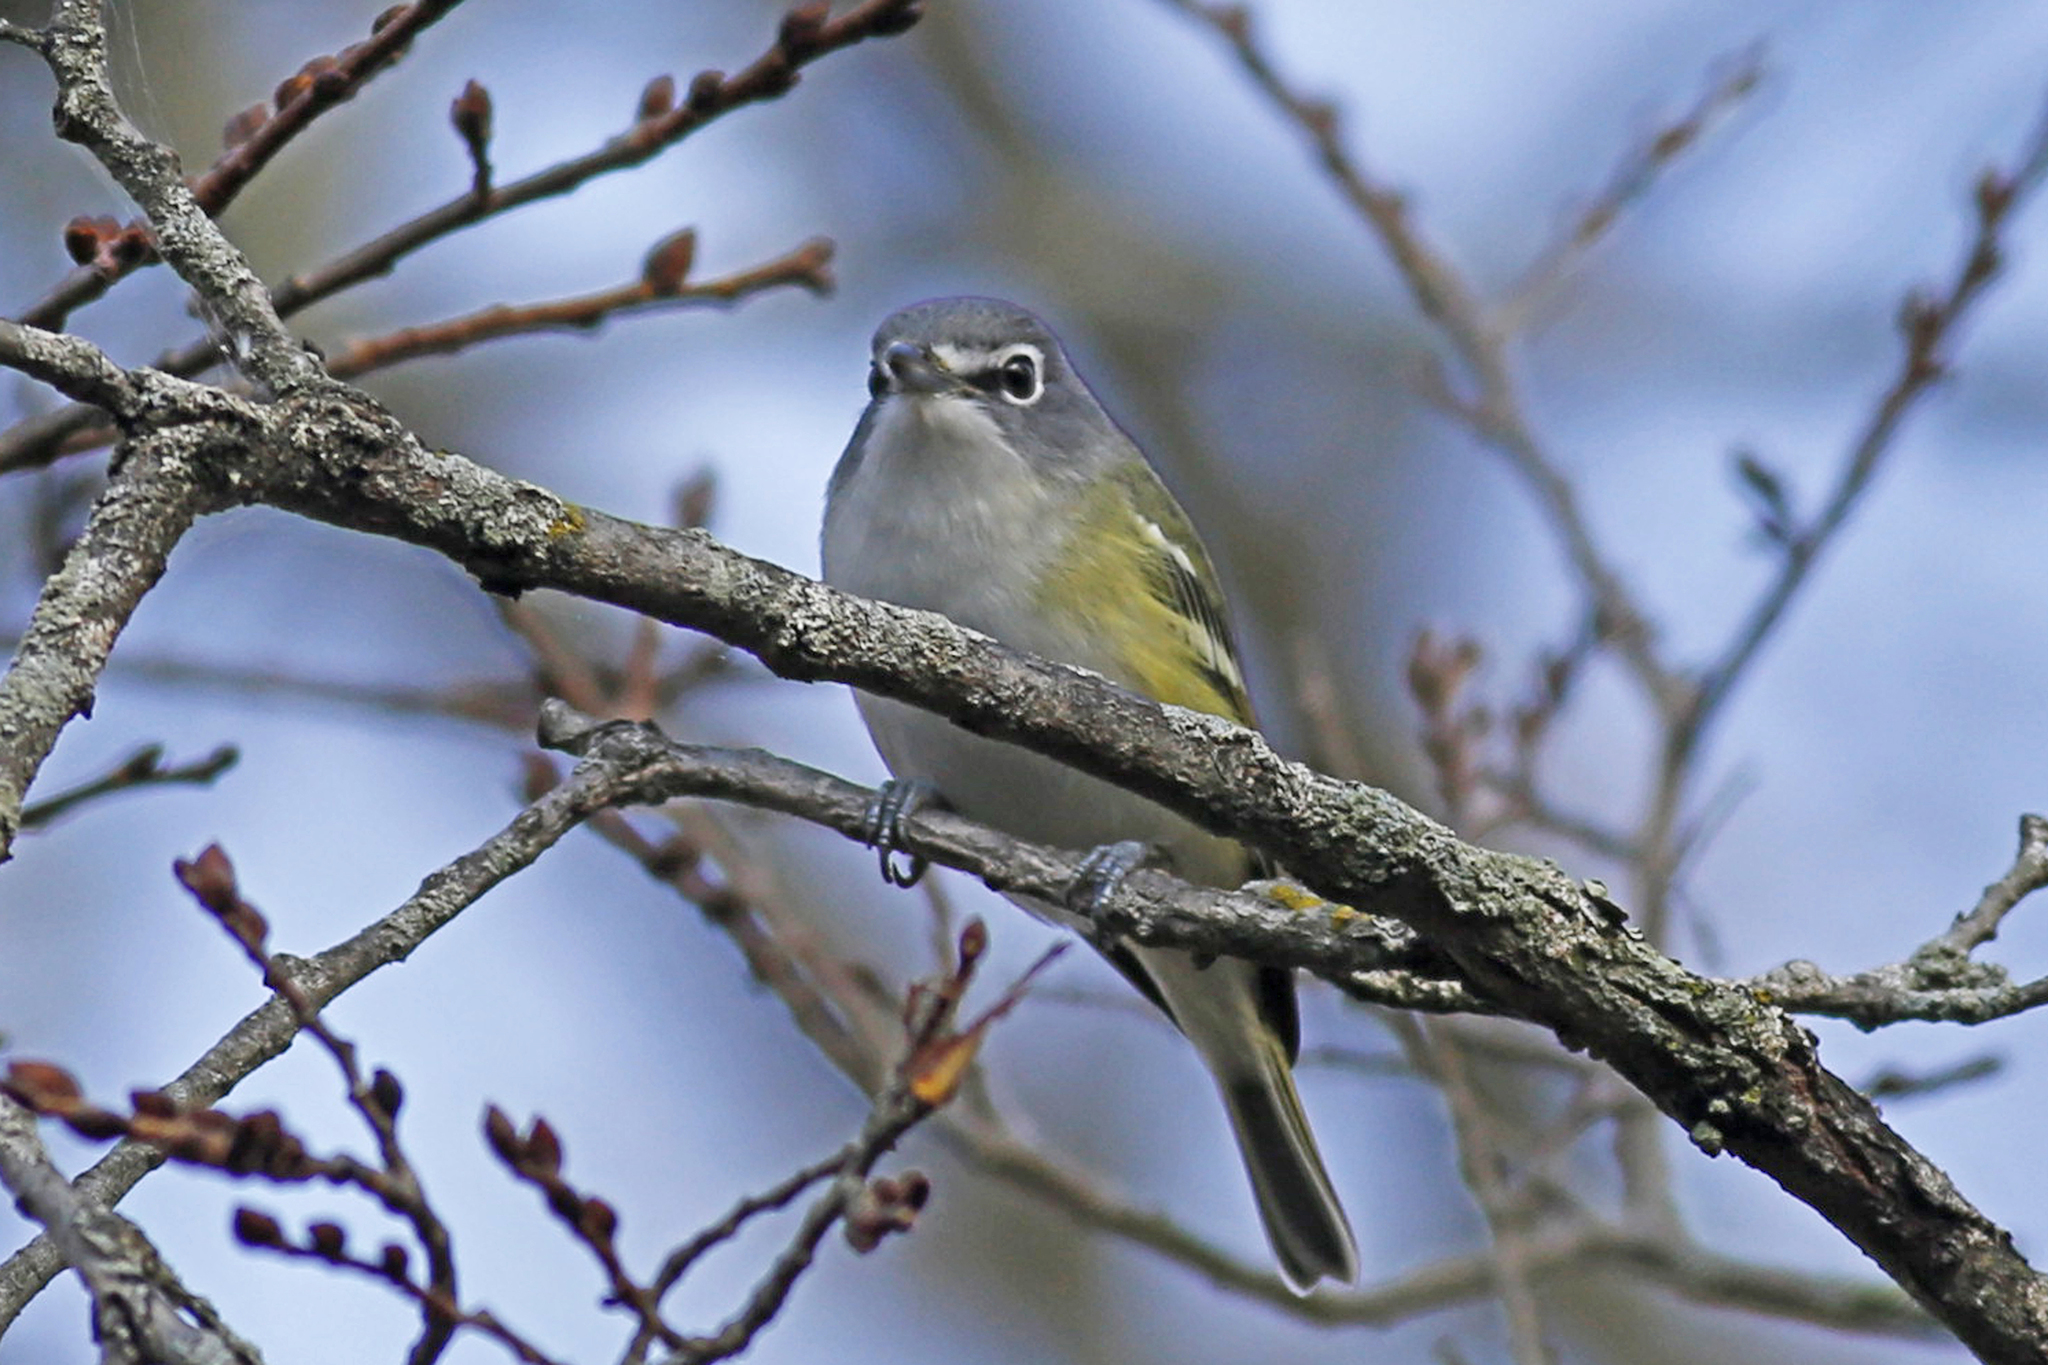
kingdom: Animalia
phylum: Chordata
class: Aves
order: Passeriformes
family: Vireonidae
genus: Vireo
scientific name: Vireo solitarius
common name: Blue-headed vireo
